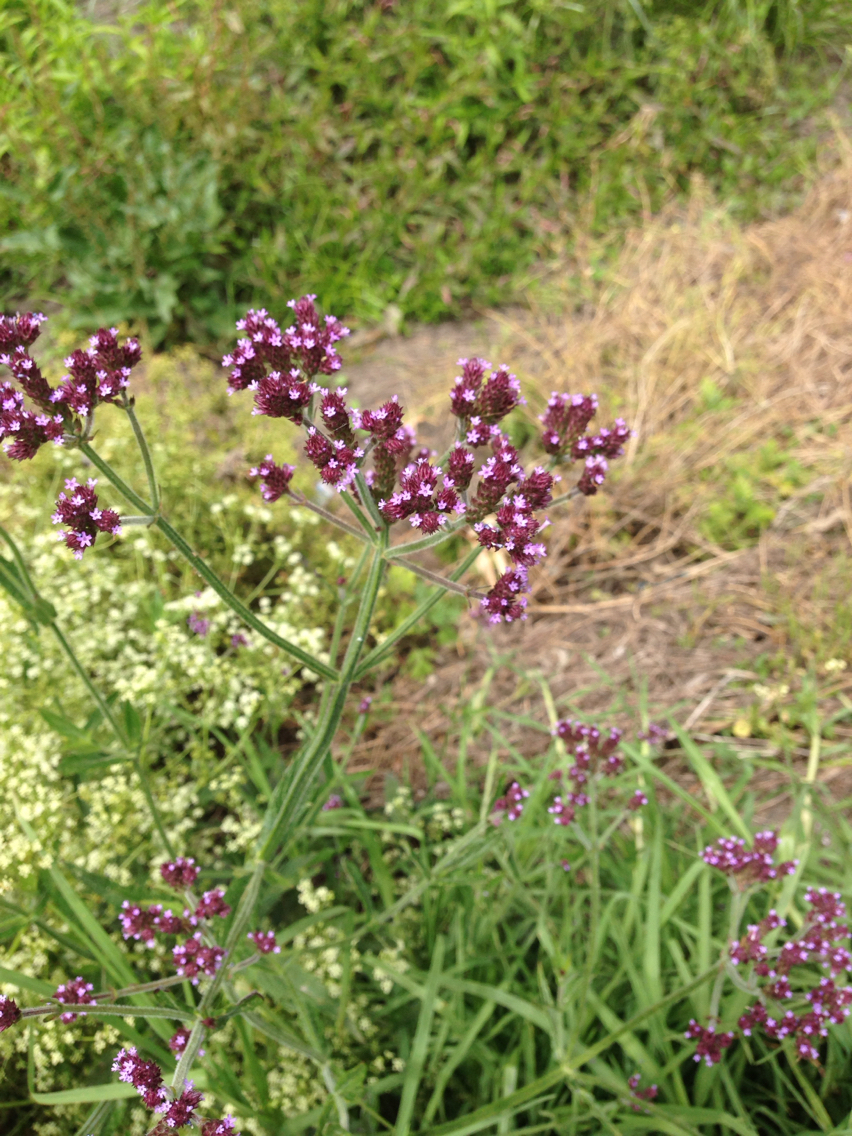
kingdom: Plantae
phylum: Tracheophyta
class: Magnoliopsida
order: Lamiales
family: Verbenaceae
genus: Verbena
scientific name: Verbena bonariensis
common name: Purpletop vervain
